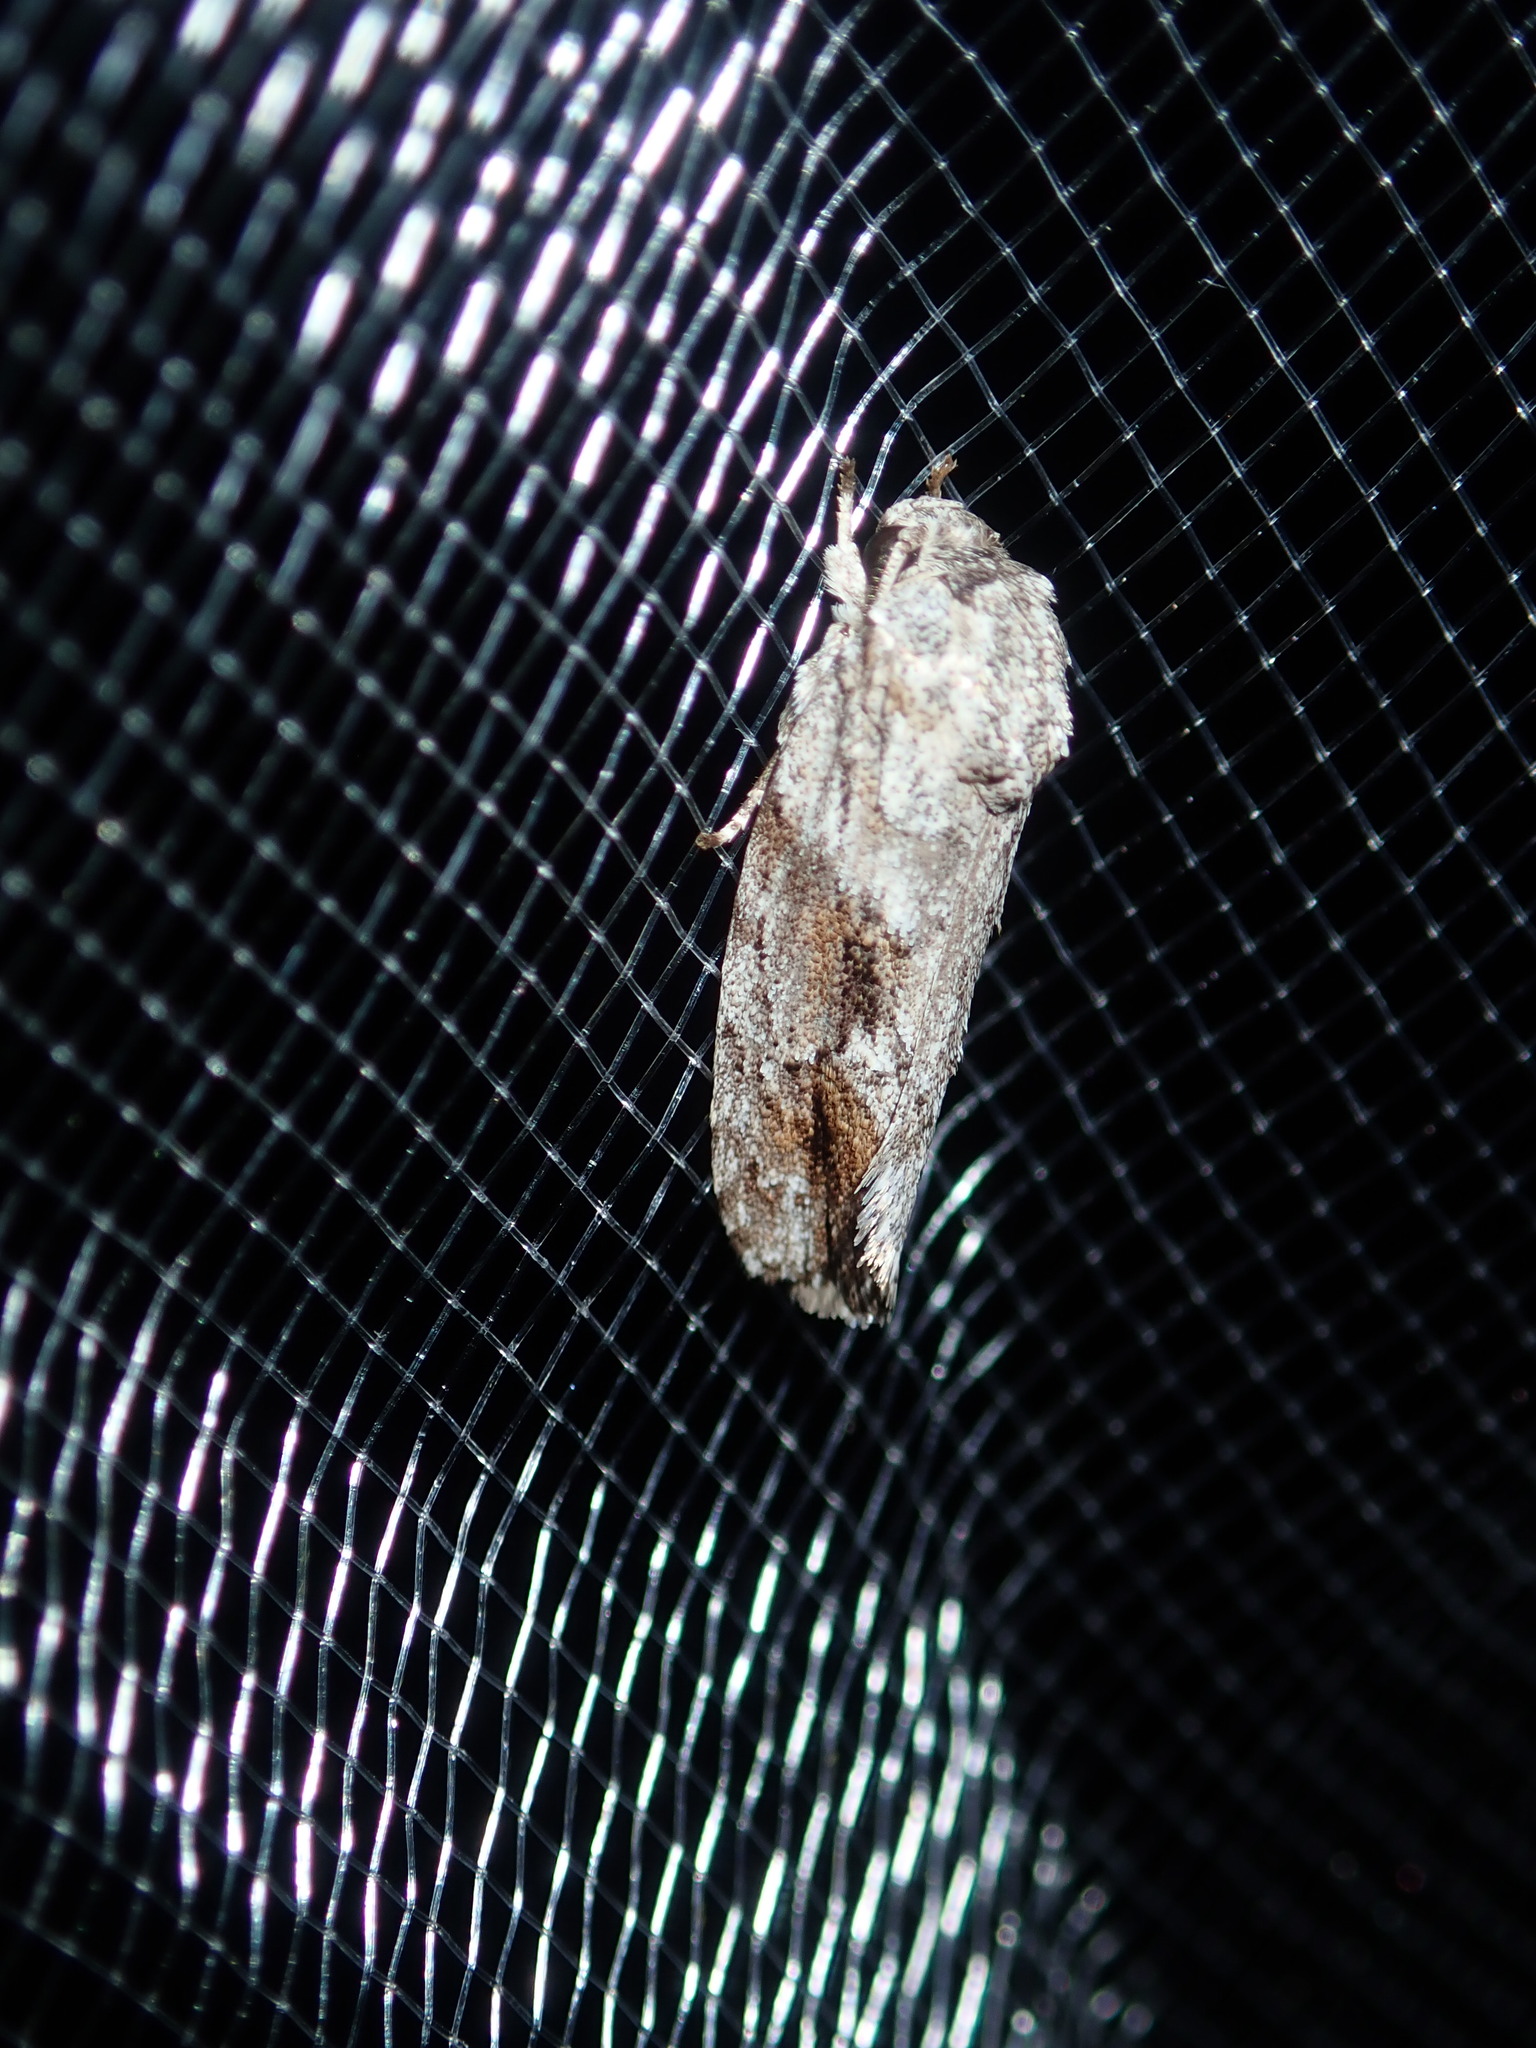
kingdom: Animalia
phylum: Arthropoda
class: Insecta
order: Lepidoptera
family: Depressariidae
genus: Agriophara
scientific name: Agriophara confertella
